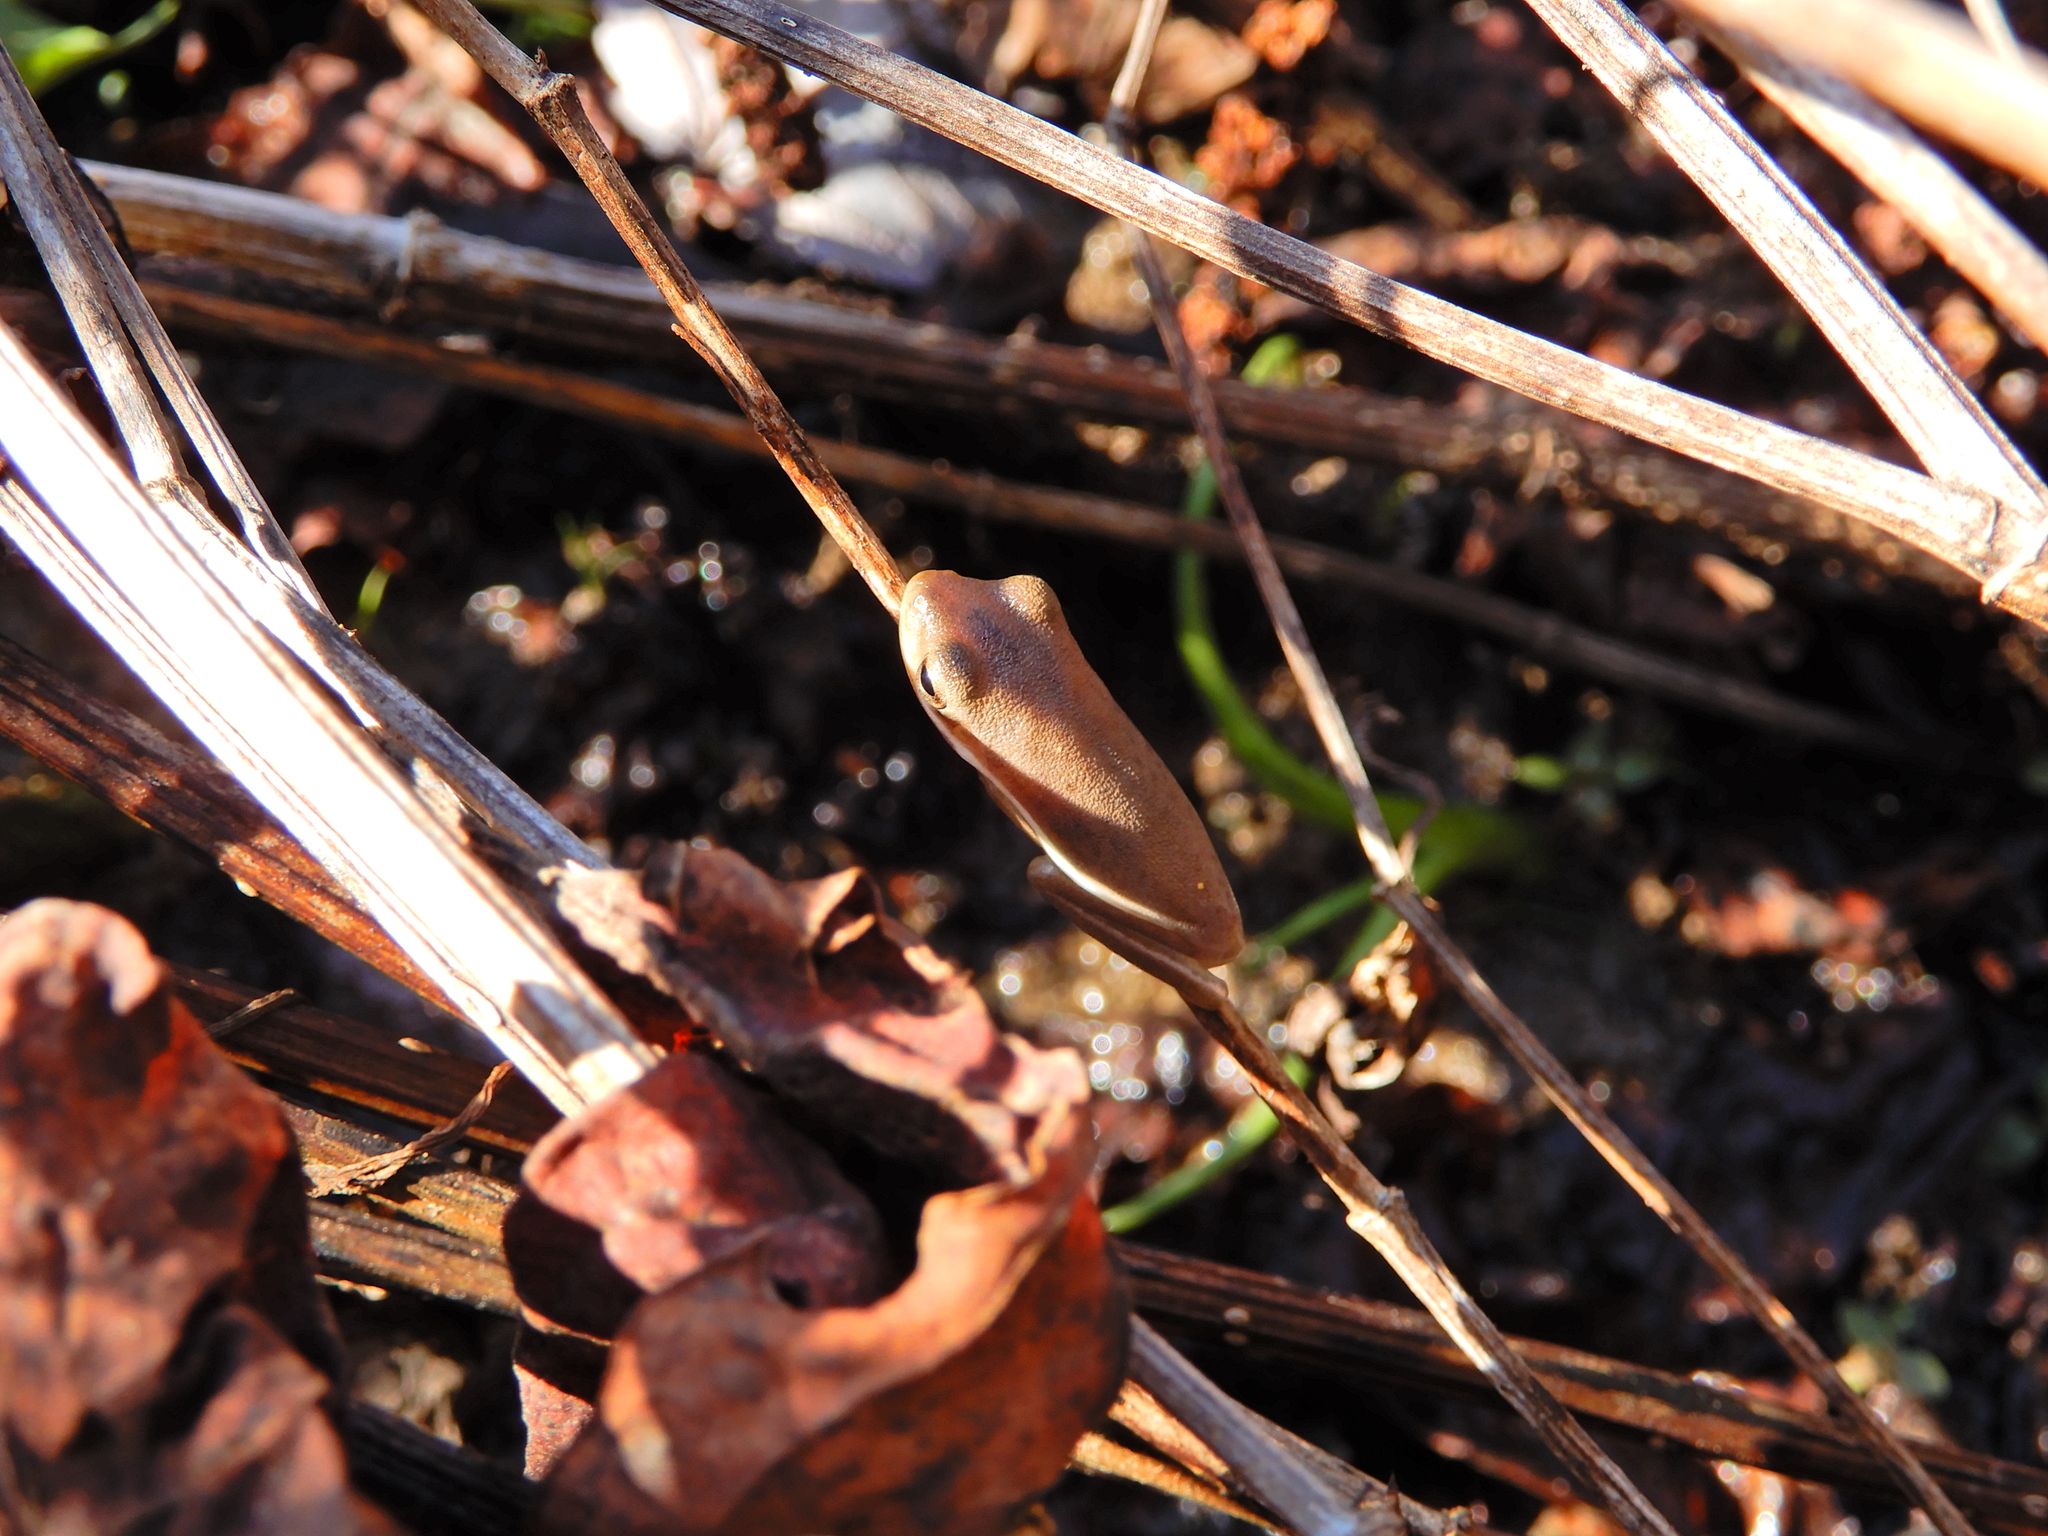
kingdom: Animalia
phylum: Chordata
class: Amphibia
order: Anura
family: Hylidae
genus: Dryophytes
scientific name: Dryophytes cinereus
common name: Green treefrog
